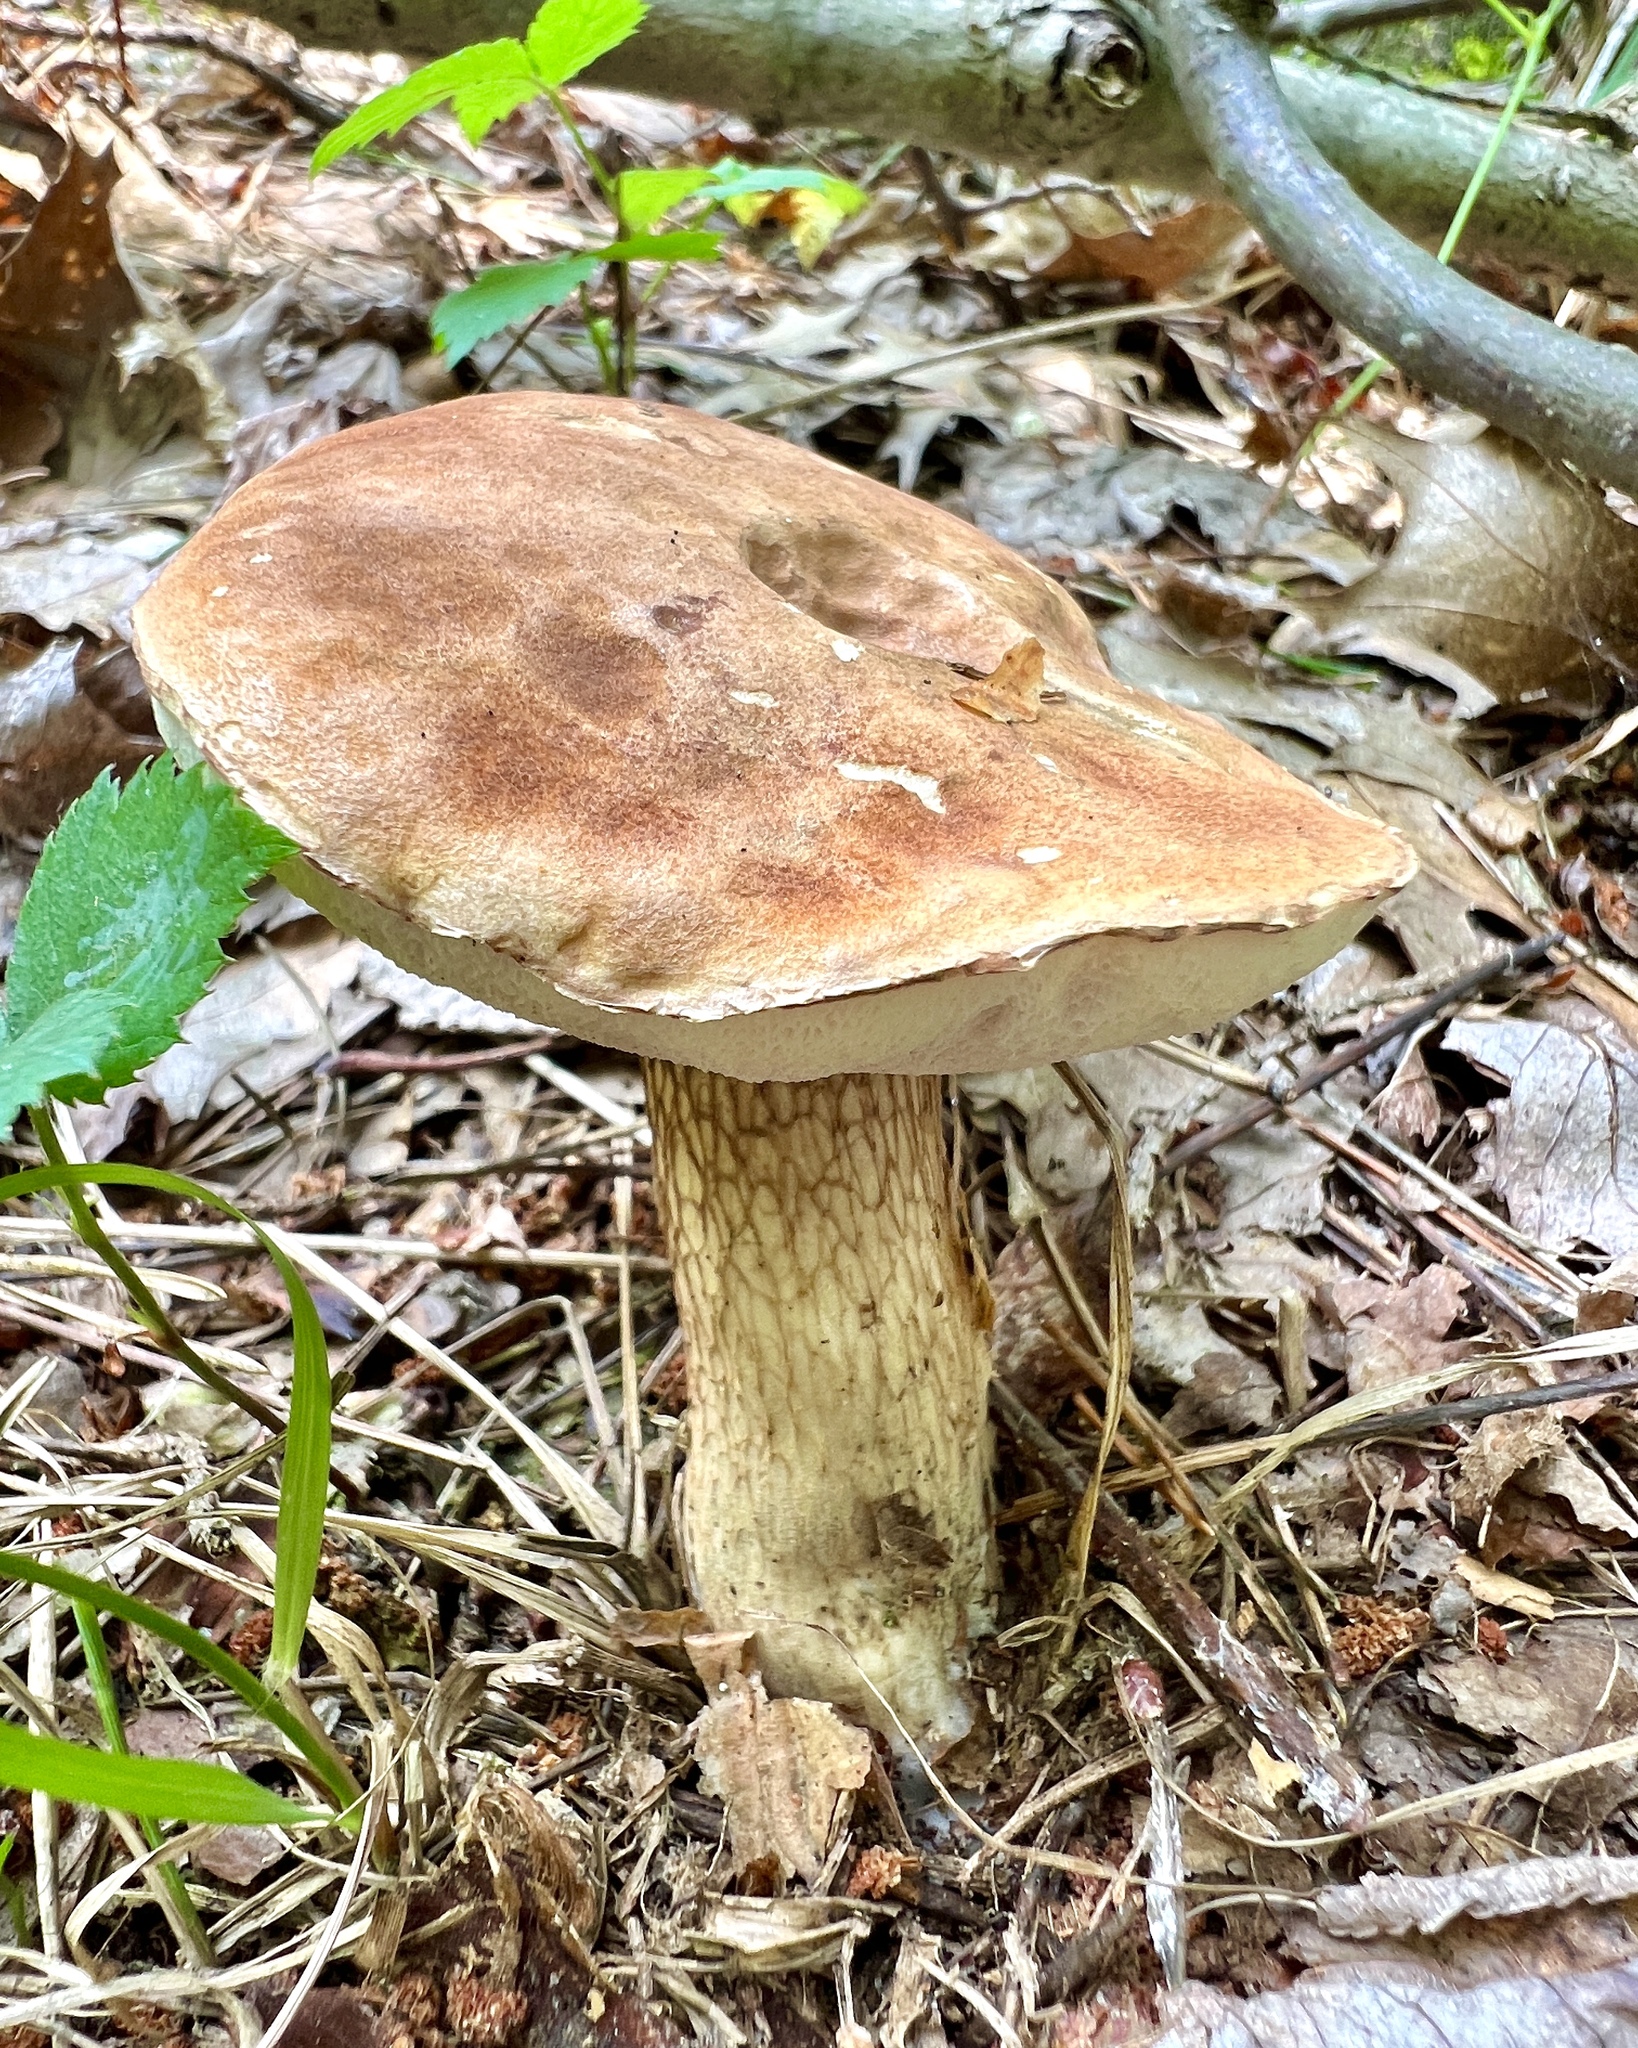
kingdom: Fungi
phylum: Basidiomycota
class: Agaricomycetes
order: Boletales
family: Boletaceae
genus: Tylopilus
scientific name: Tylopilus felleus
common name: Bitter bolete
